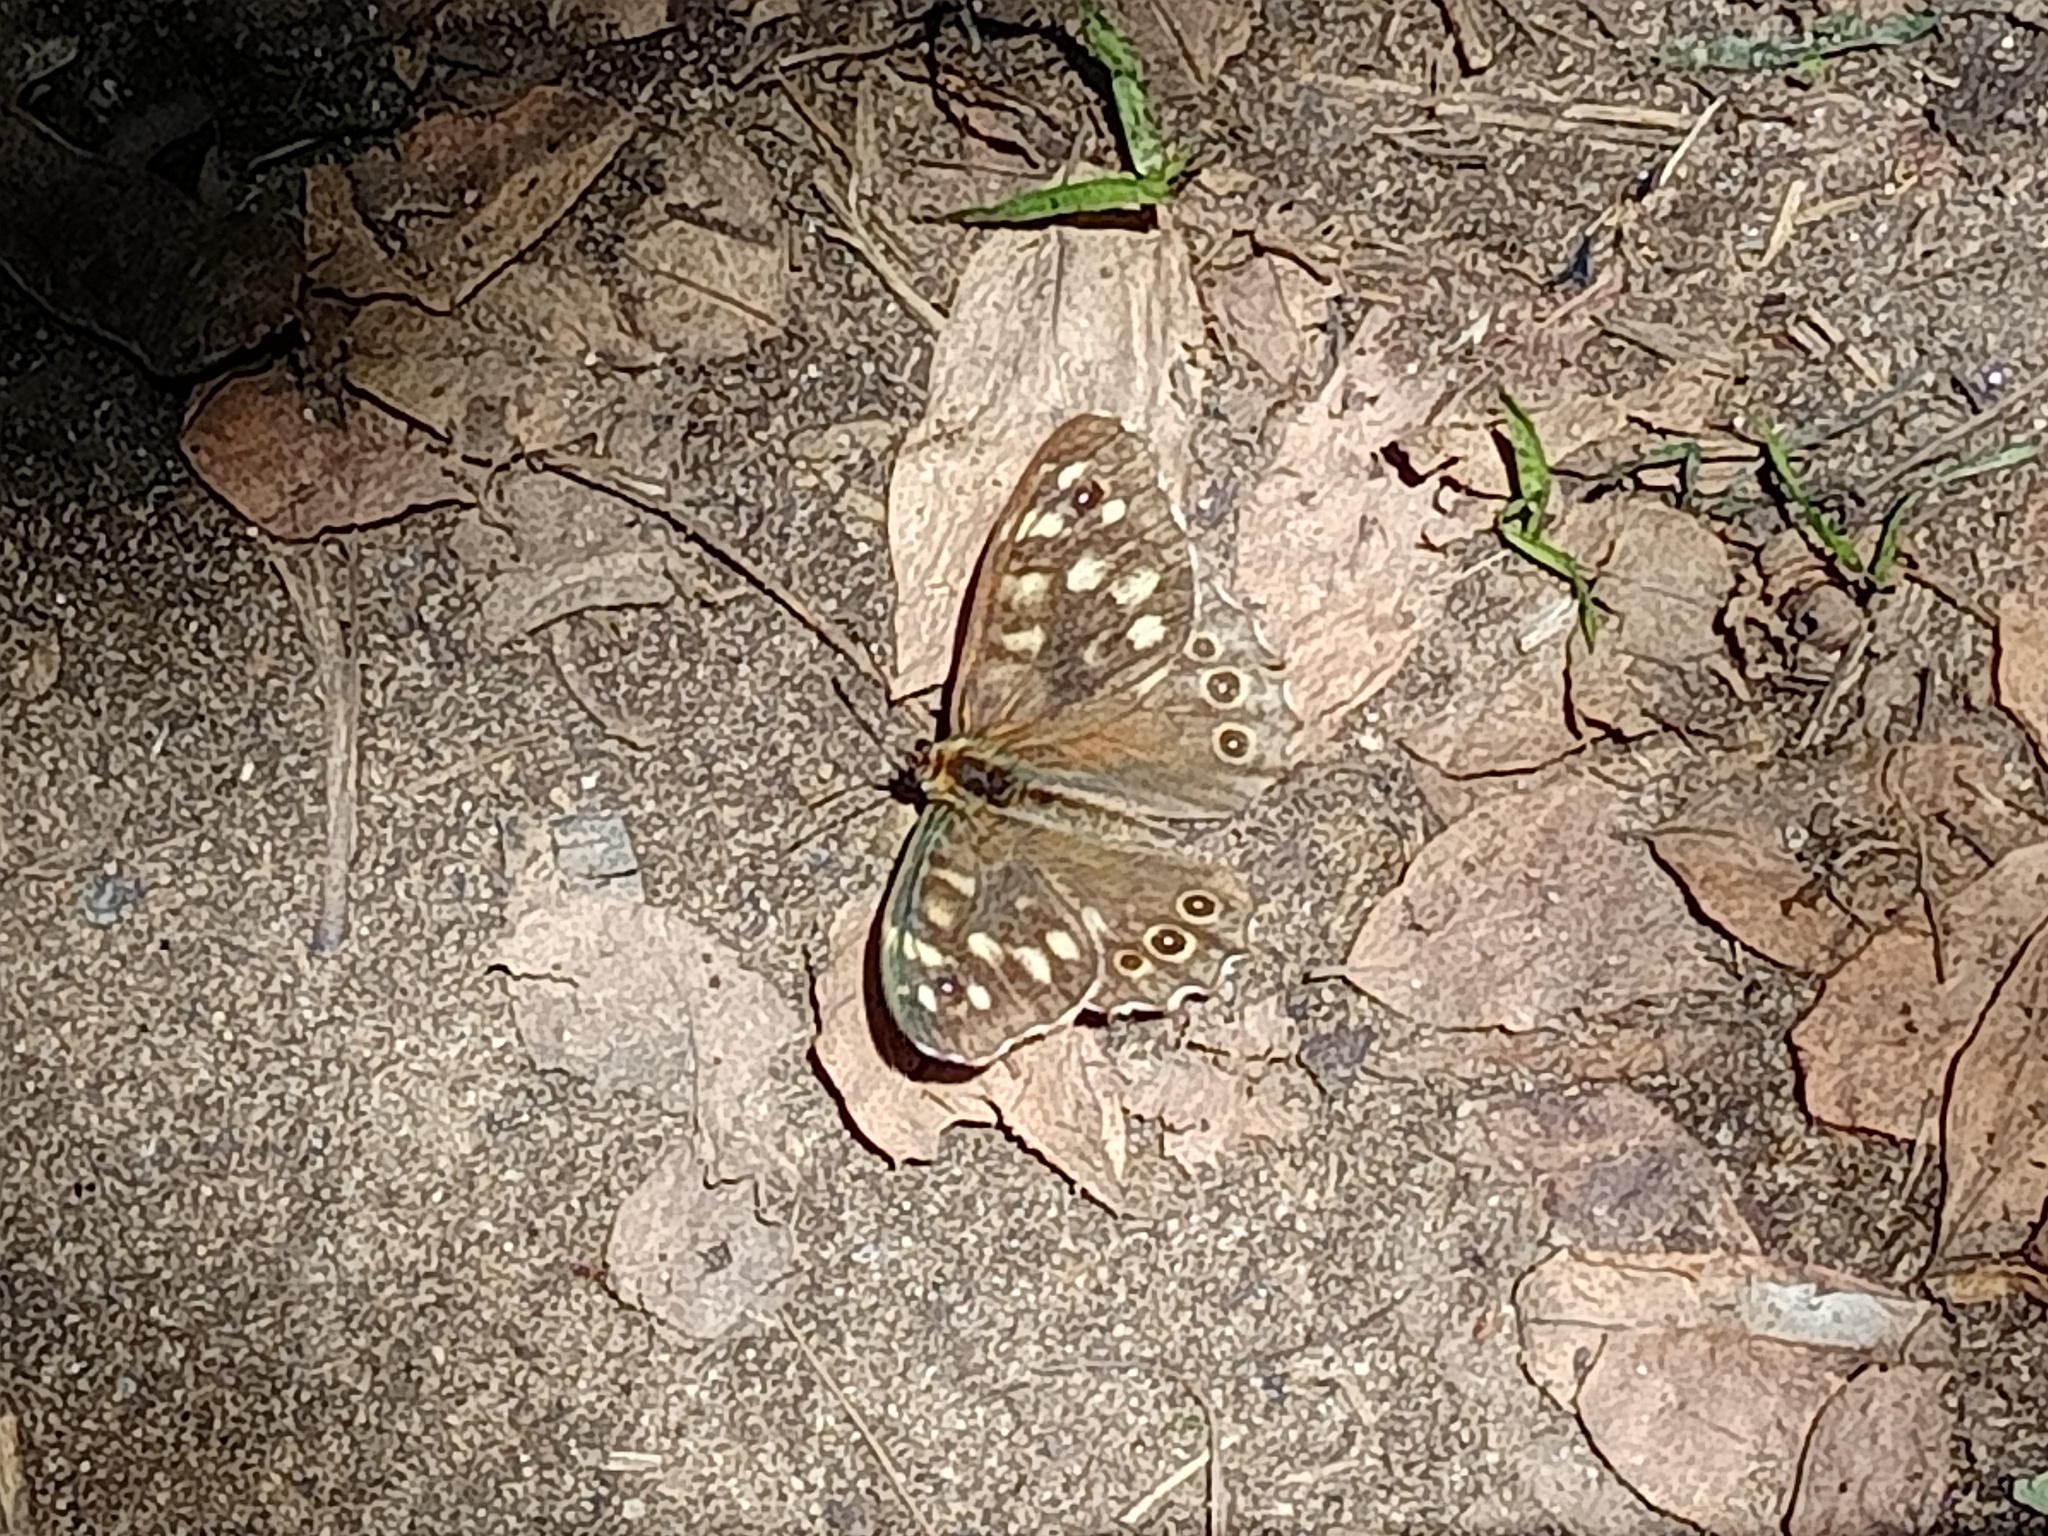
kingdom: Animalia
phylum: Arthropoda
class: Insecta
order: Lepidoptera
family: Nymphalidae
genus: Pararge
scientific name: Pararge aegeria
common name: Speckled wood
